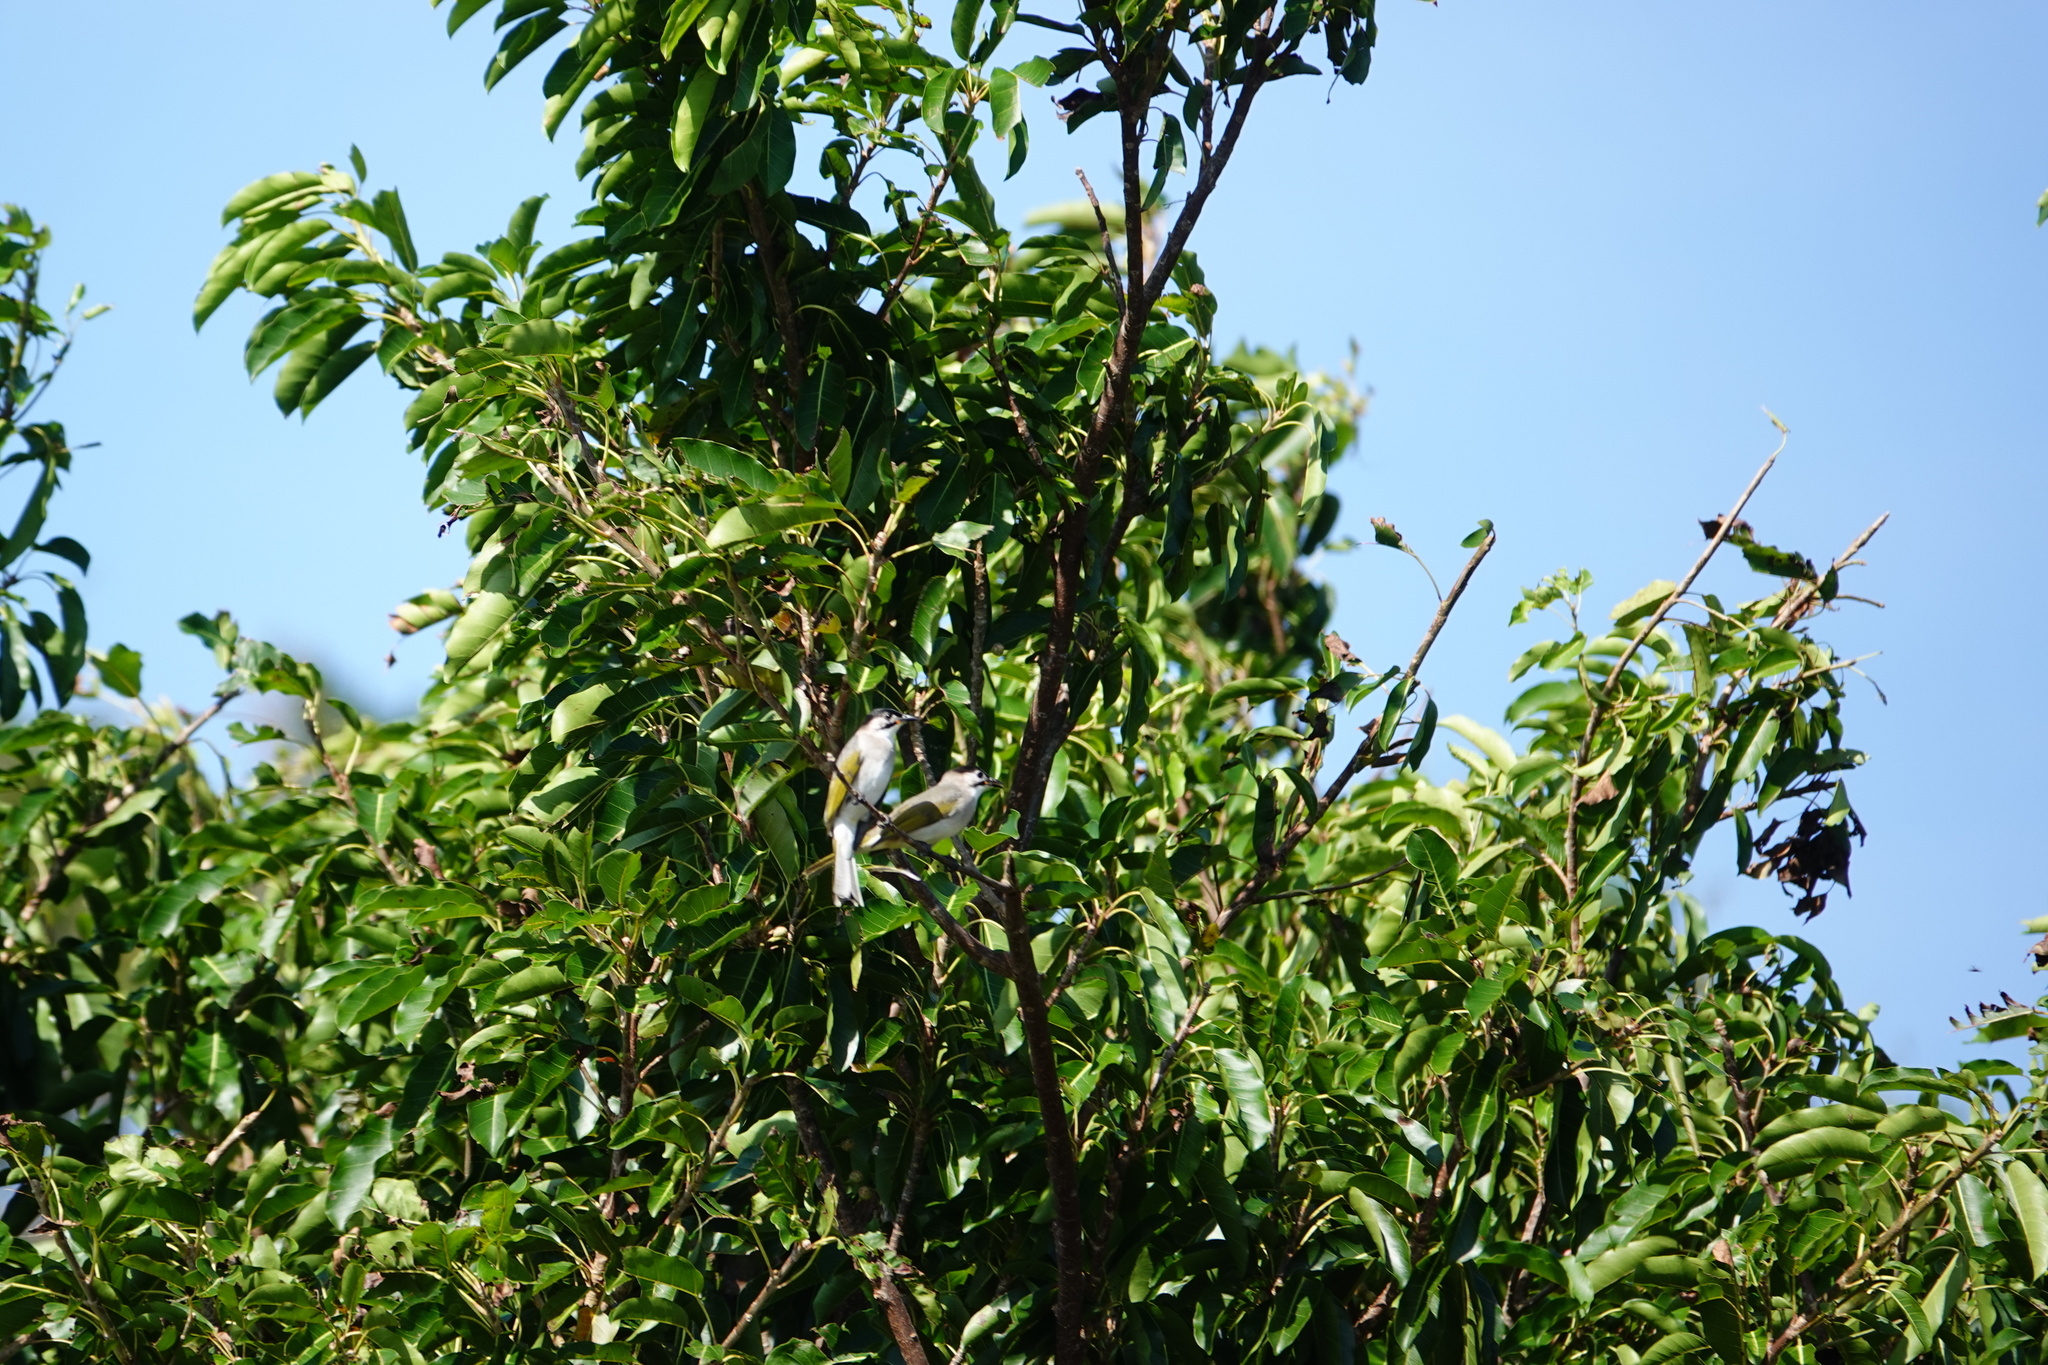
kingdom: Animalia
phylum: Chordata
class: Aves
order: Passeriformes
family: Pycnonotidae
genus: Pycnonotus
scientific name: Pycnonotus taivanus
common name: Styan's bulbul
